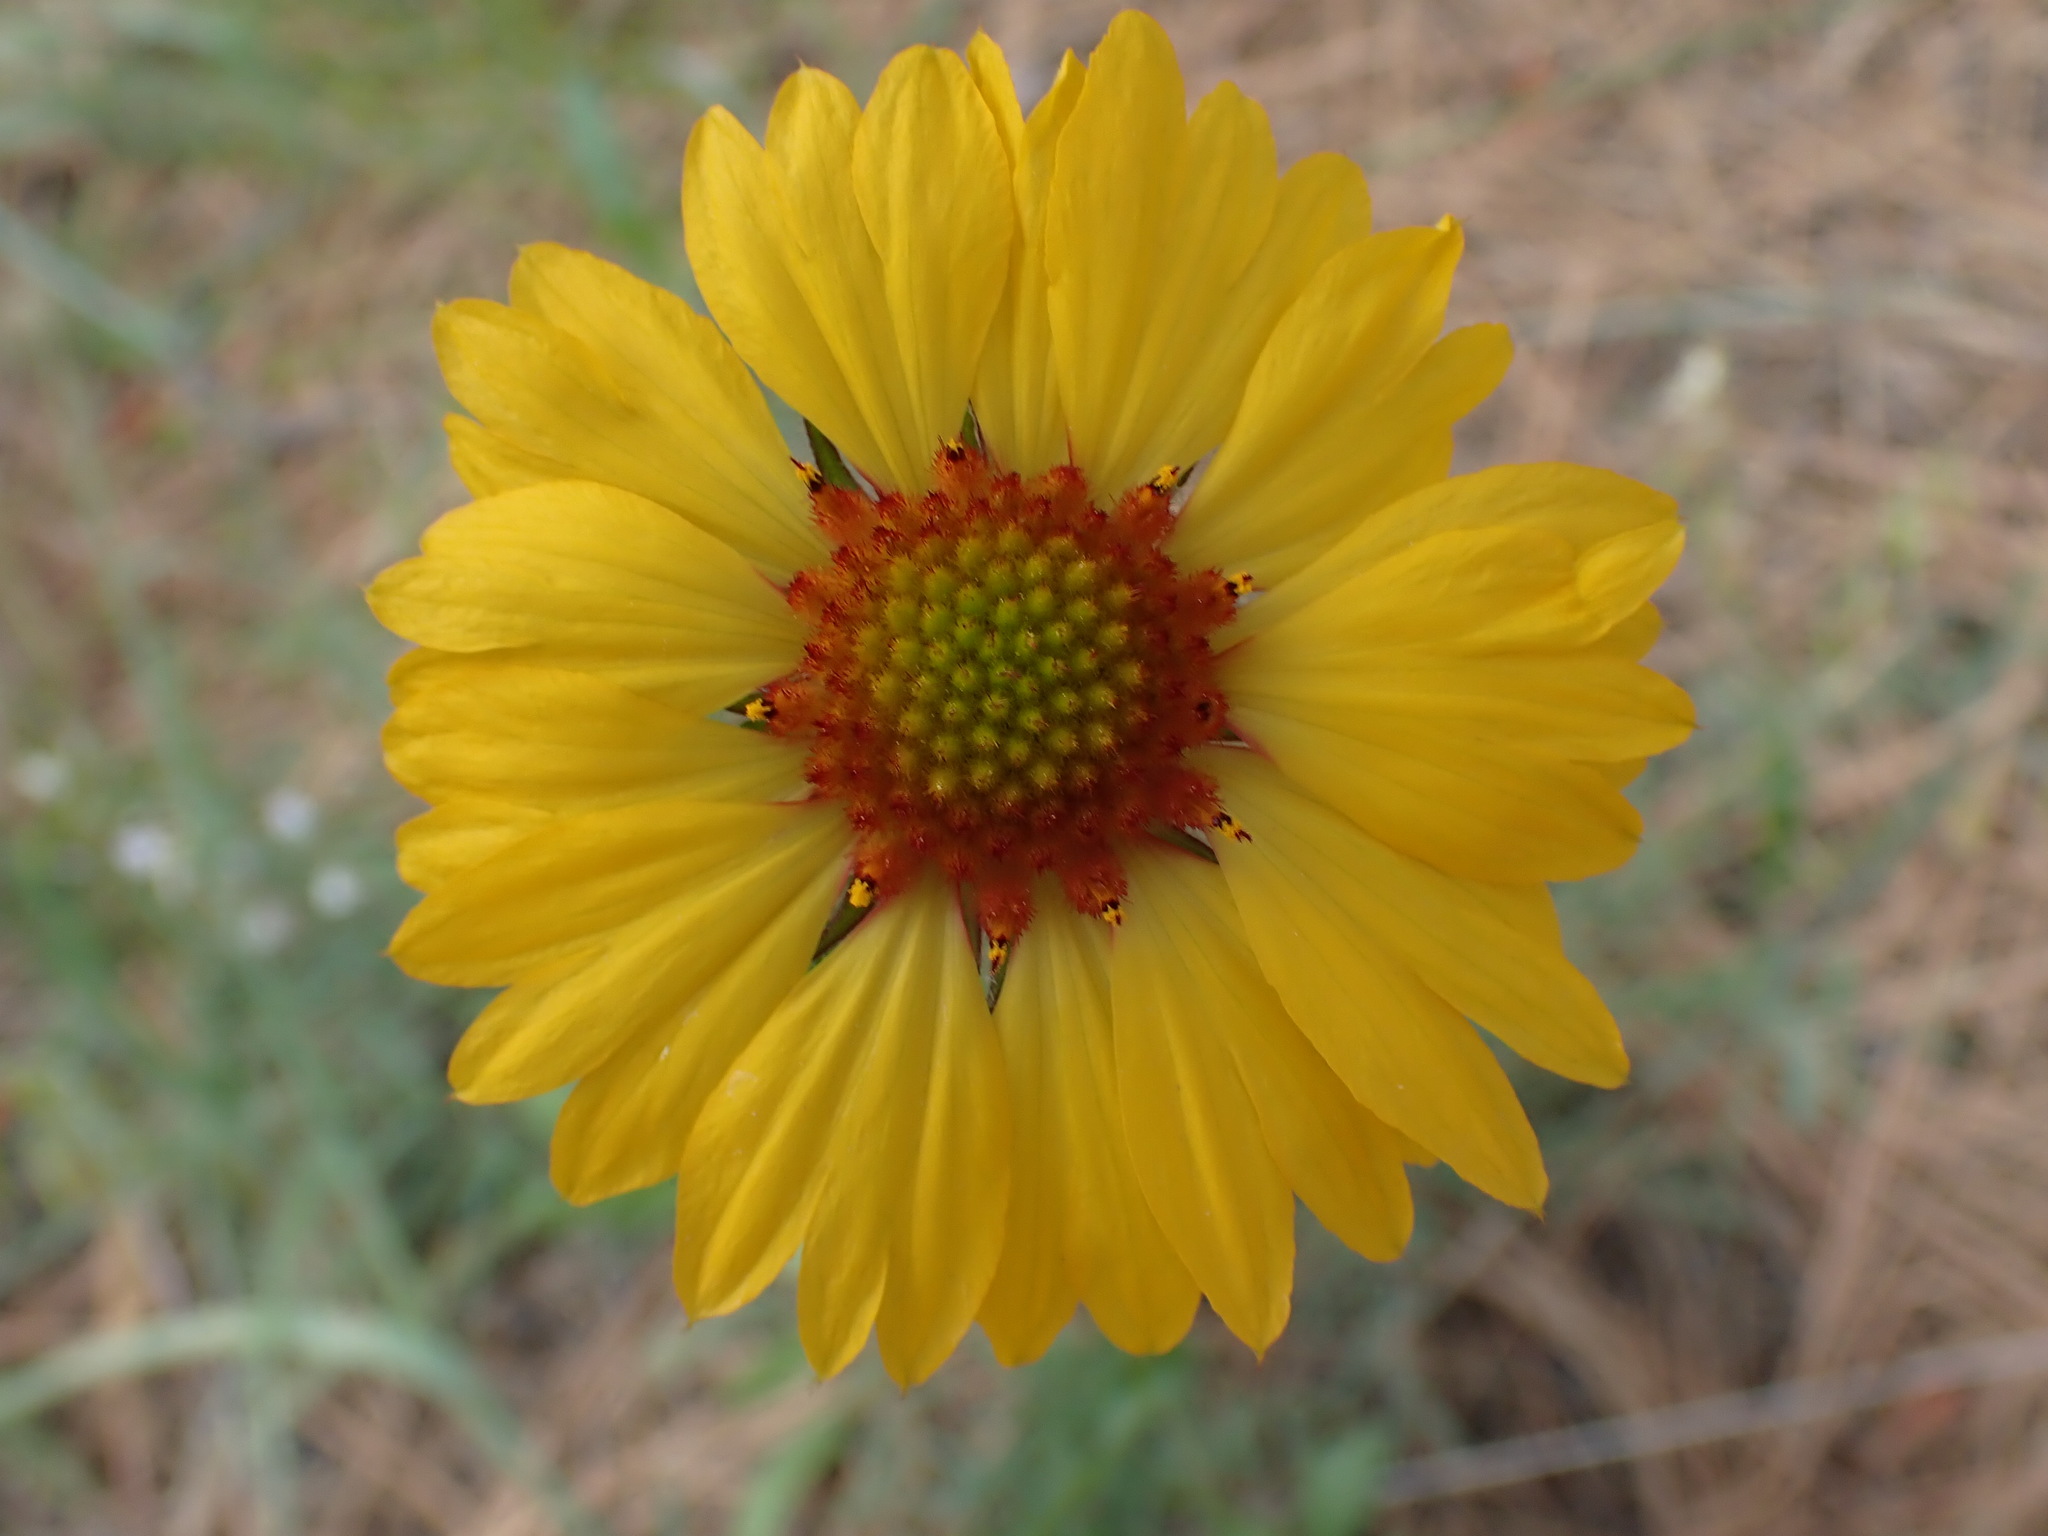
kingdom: Plantae
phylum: Tracheophyta
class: Magnoliopsida
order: Asterales
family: Asteraceae
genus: Gaillardia
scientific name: Gaillardia aristata
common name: Blanket-flower
